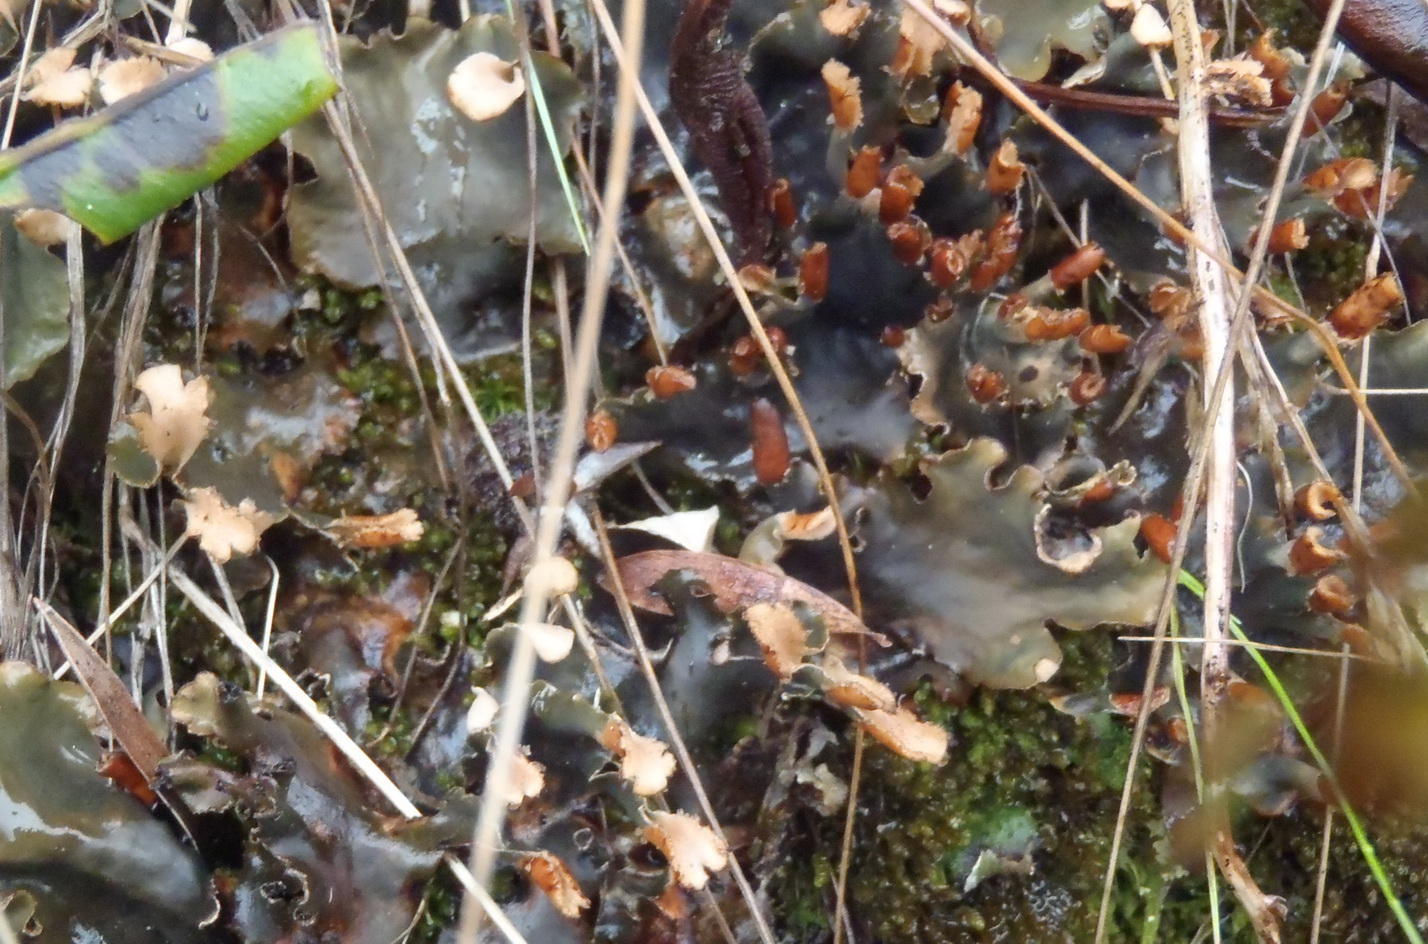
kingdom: Fungi
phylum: Ascomycota
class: Lecanoromycetes
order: Peltigerales
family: Peltigeraceae
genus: Peltigera
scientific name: Peltigera polydactylon
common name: Many-fruited pelt lichen
